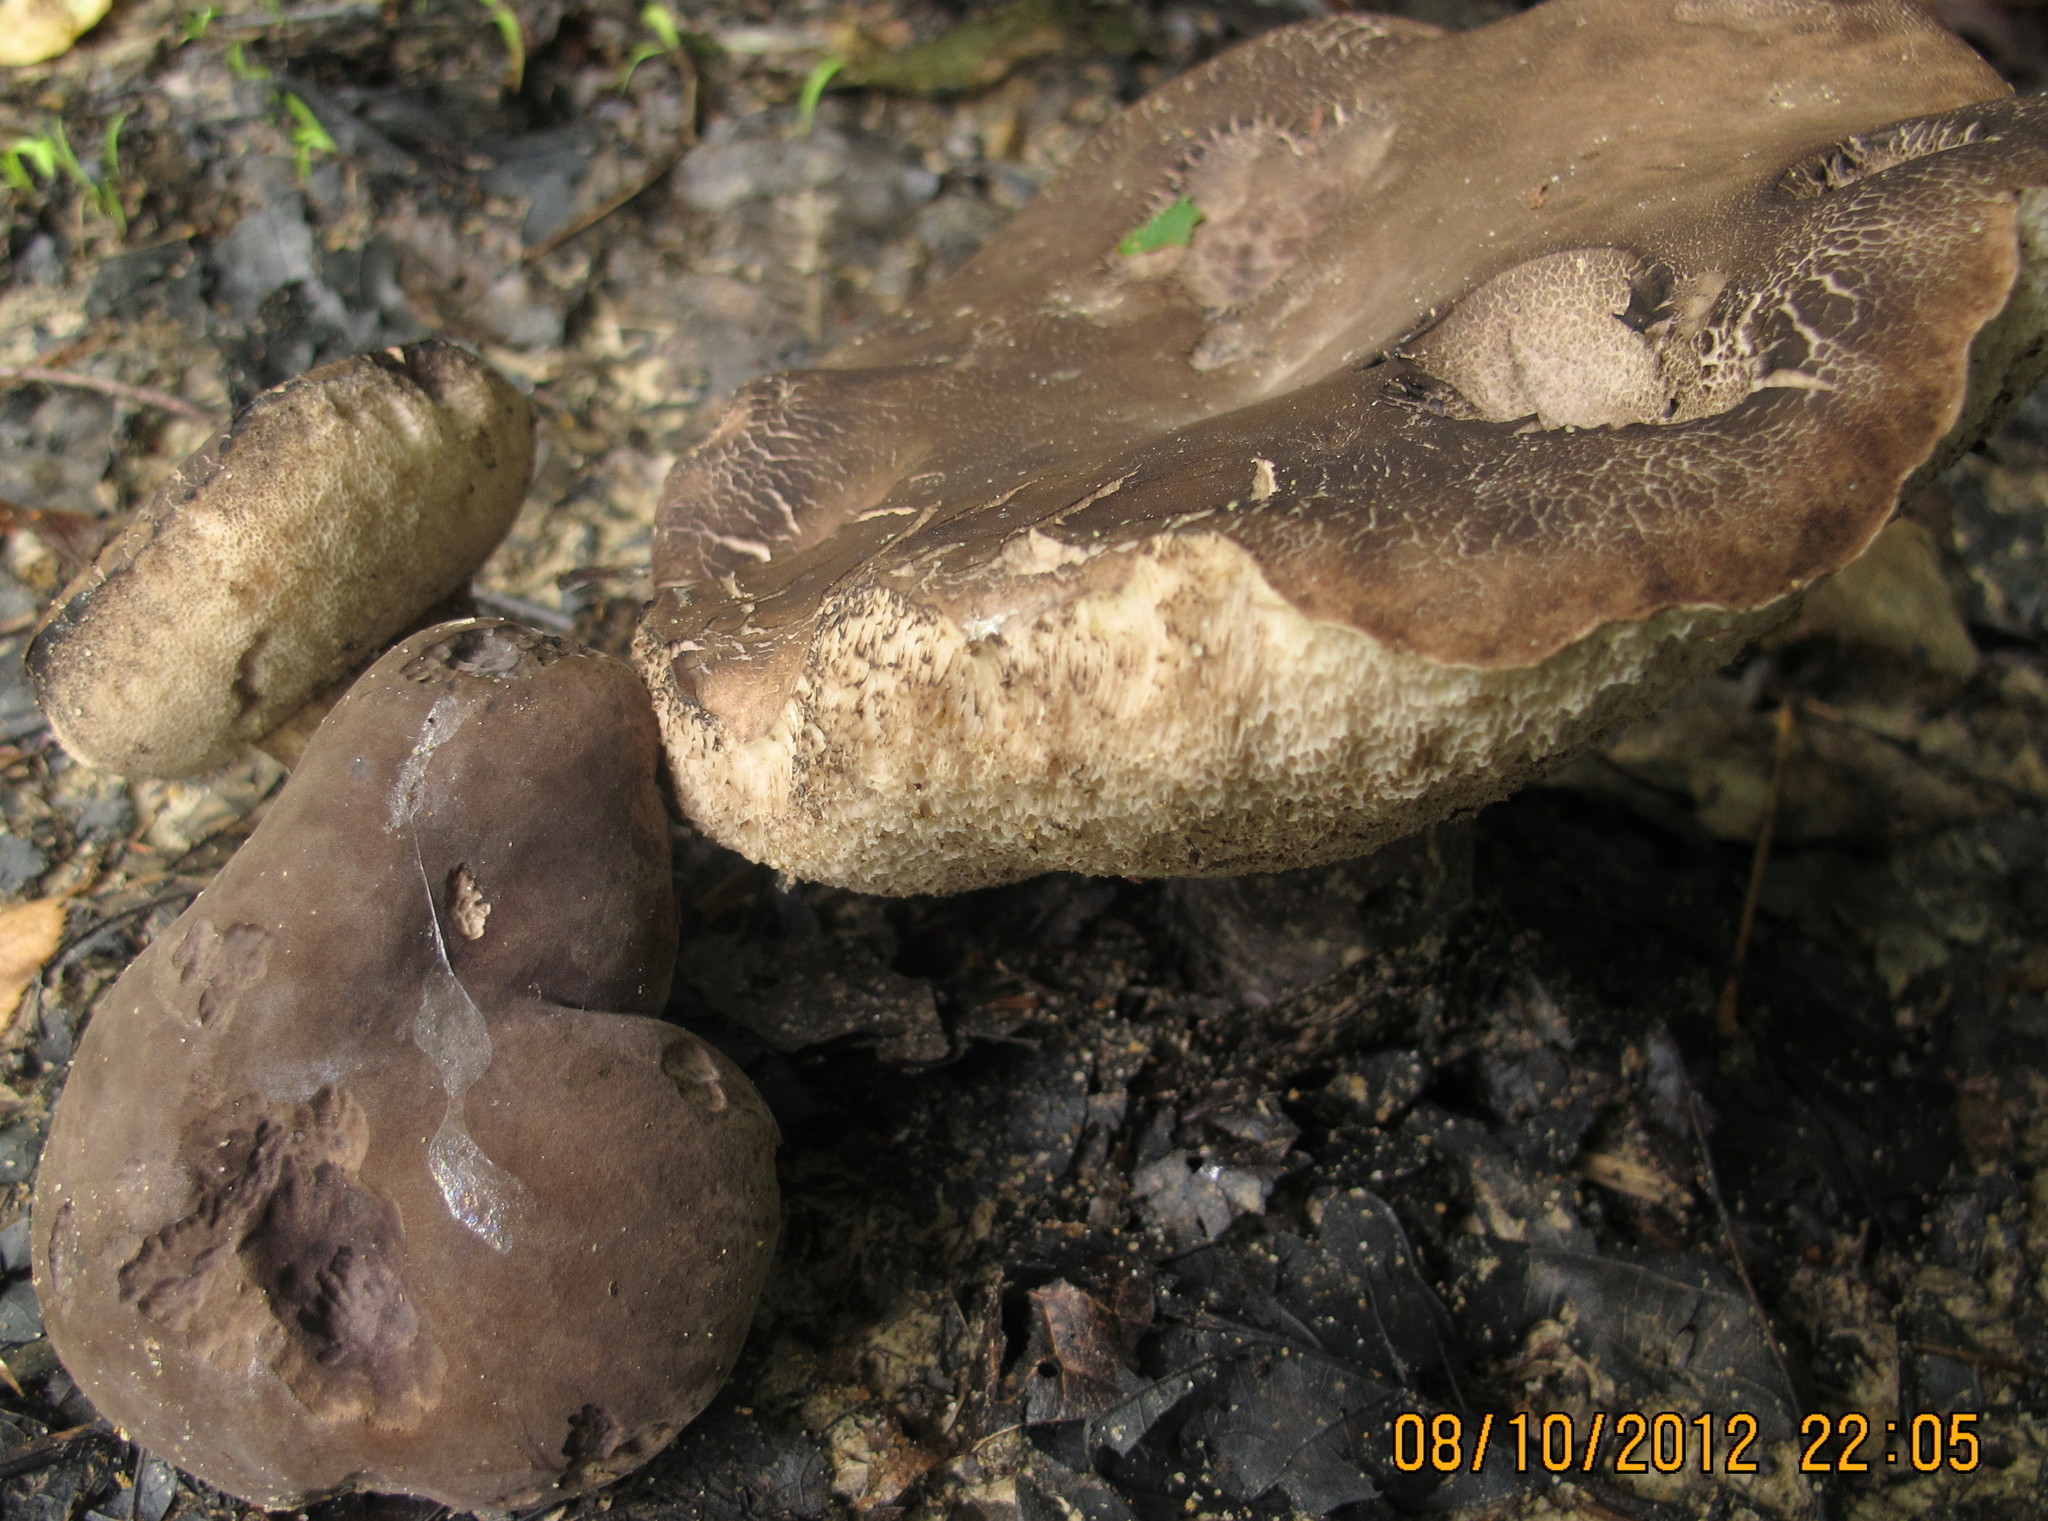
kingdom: Fungi
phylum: Basidiomycota
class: Agaricomycetes
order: Boletales
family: Boletaceae
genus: Tylopilus
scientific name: Tylopilus alboater
